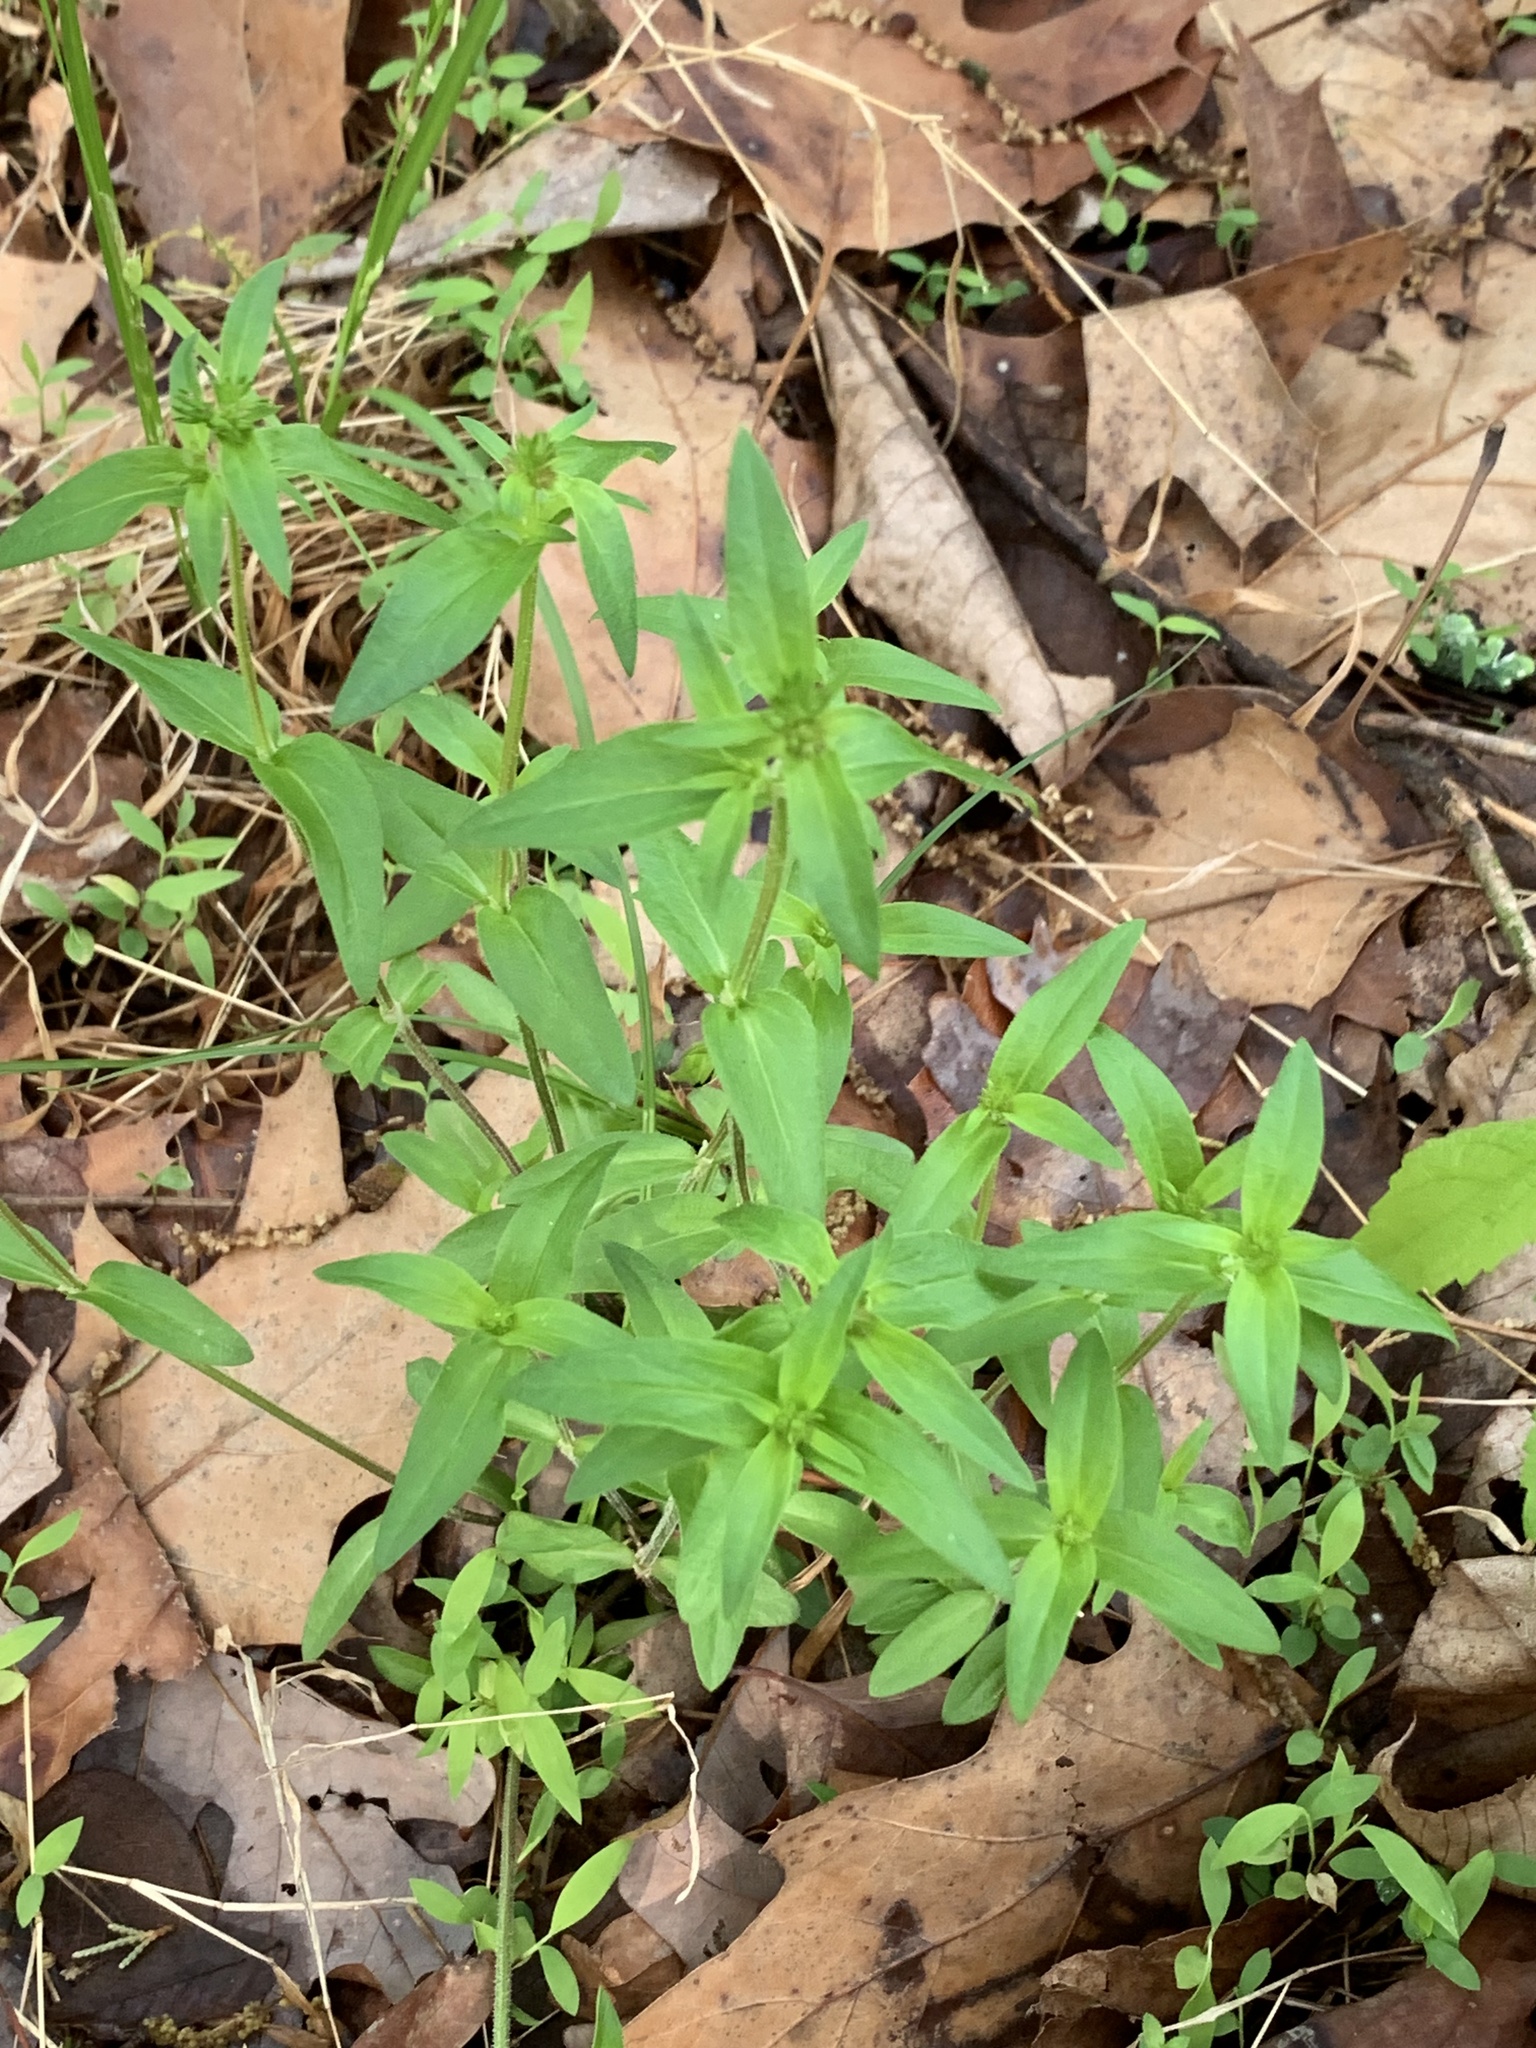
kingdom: Plantae
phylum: Tracheophyta
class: Magnoliopsida
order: Gentianales
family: Rubiaceae
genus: Houstonia
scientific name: Houstonia purpurea
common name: Summer bluet
